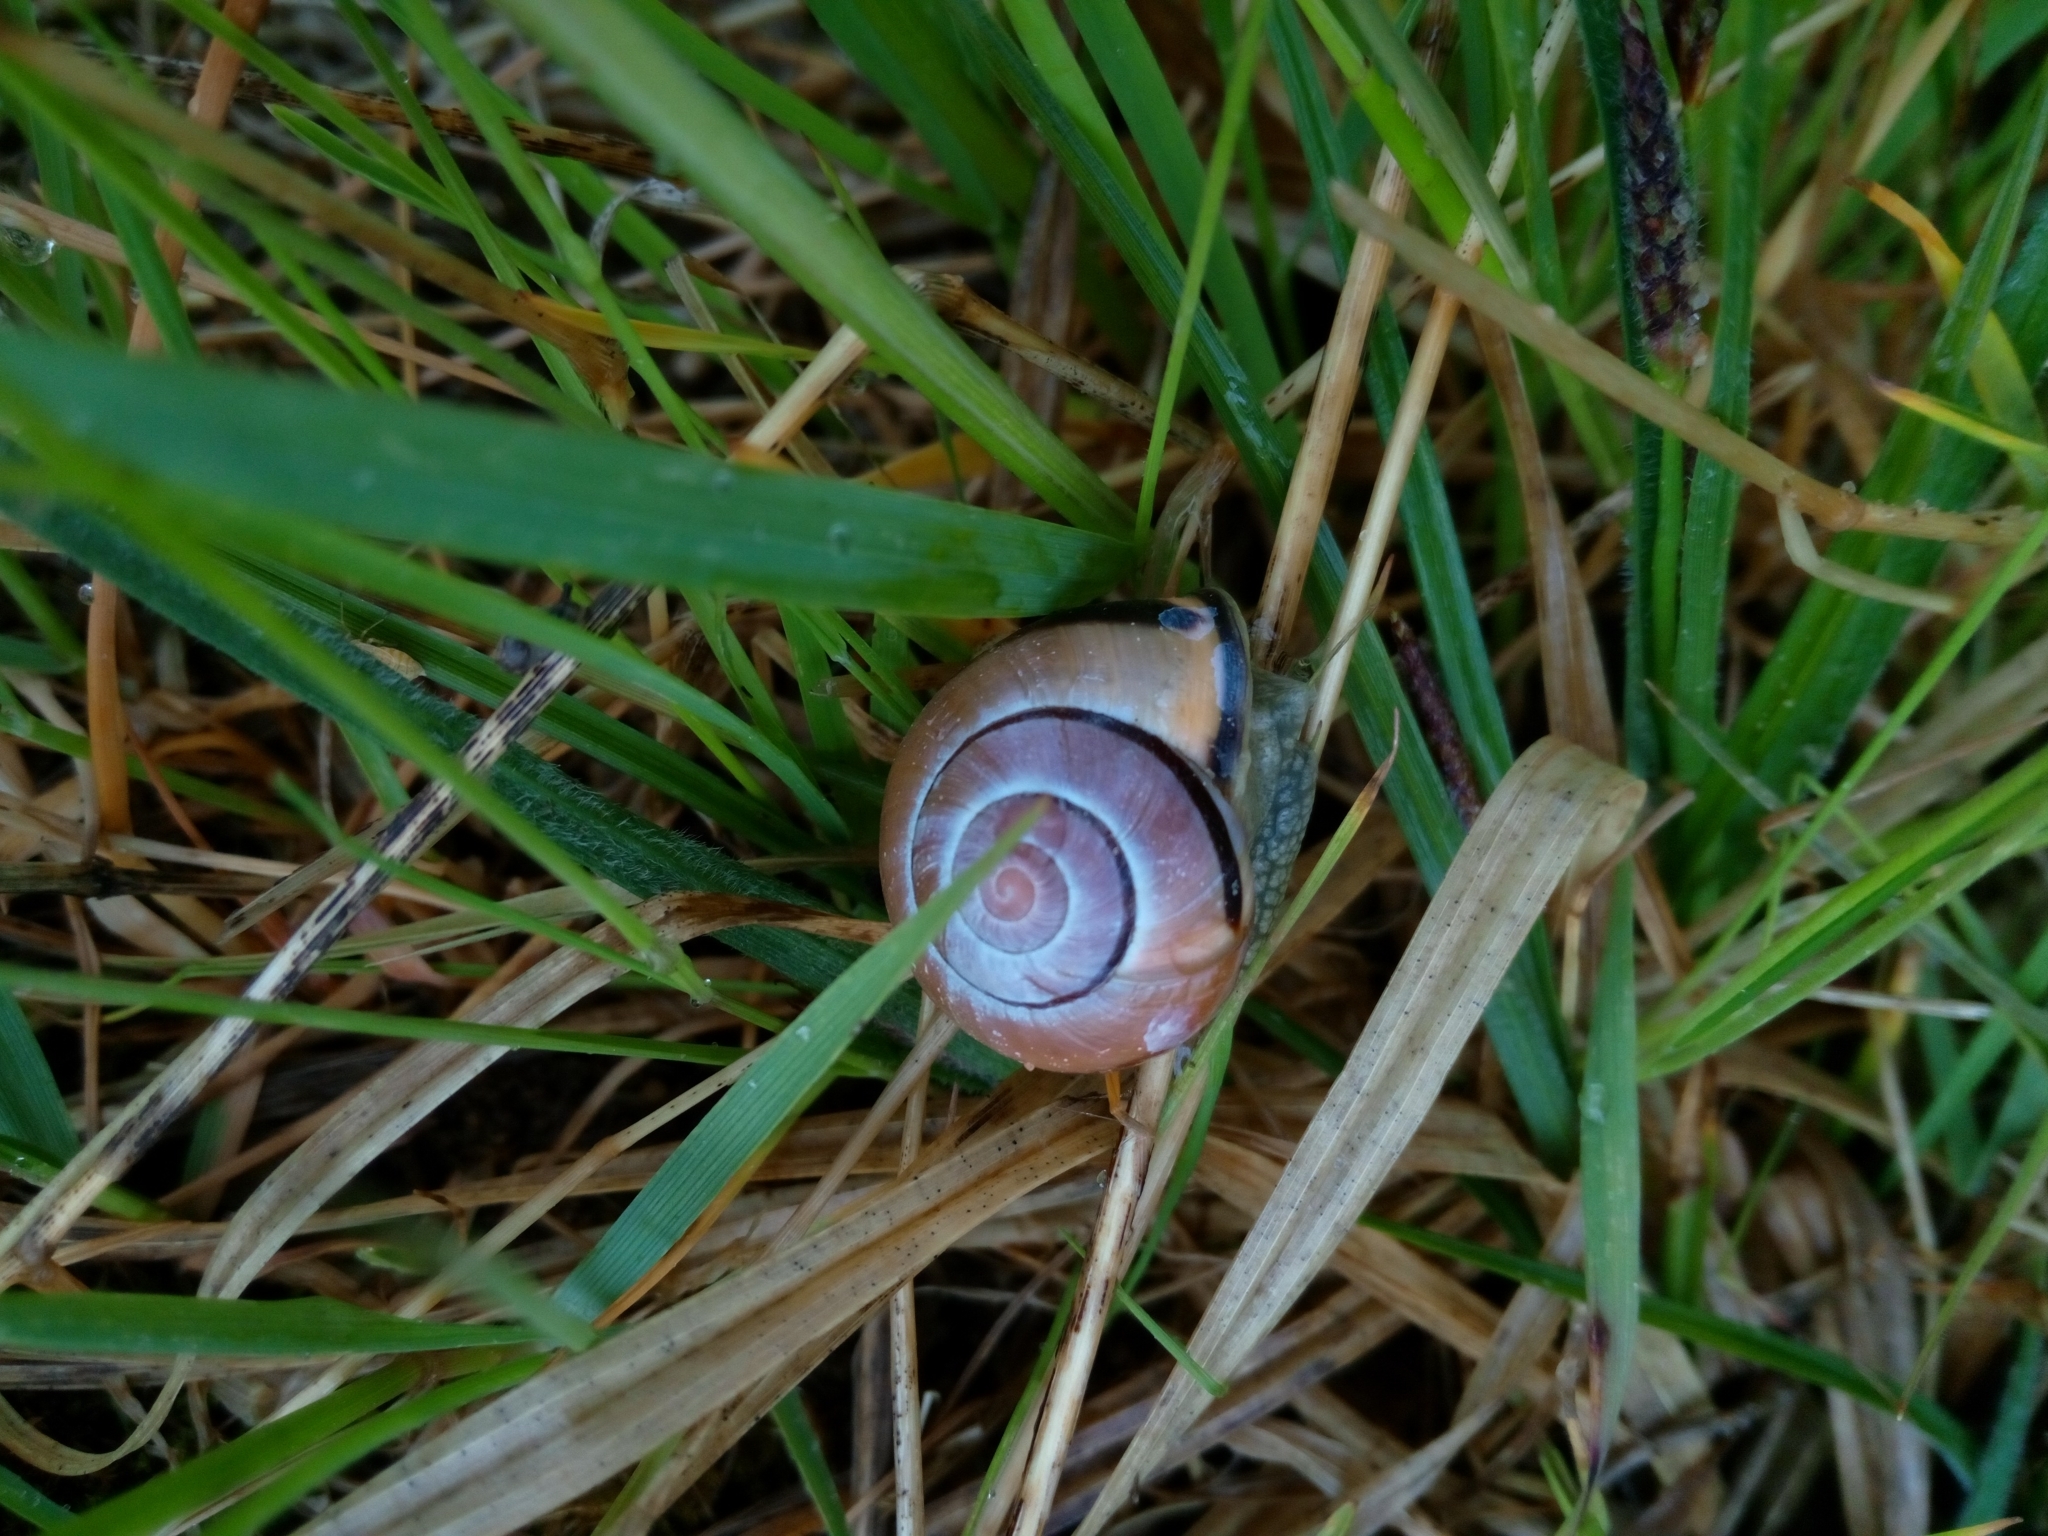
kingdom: Animalia
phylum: Mollusca
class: Gastropoda
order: Stylommatophora
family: Helicidae
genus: Cepaea
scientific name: Cepaea nemoralis
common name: Grovesnail
